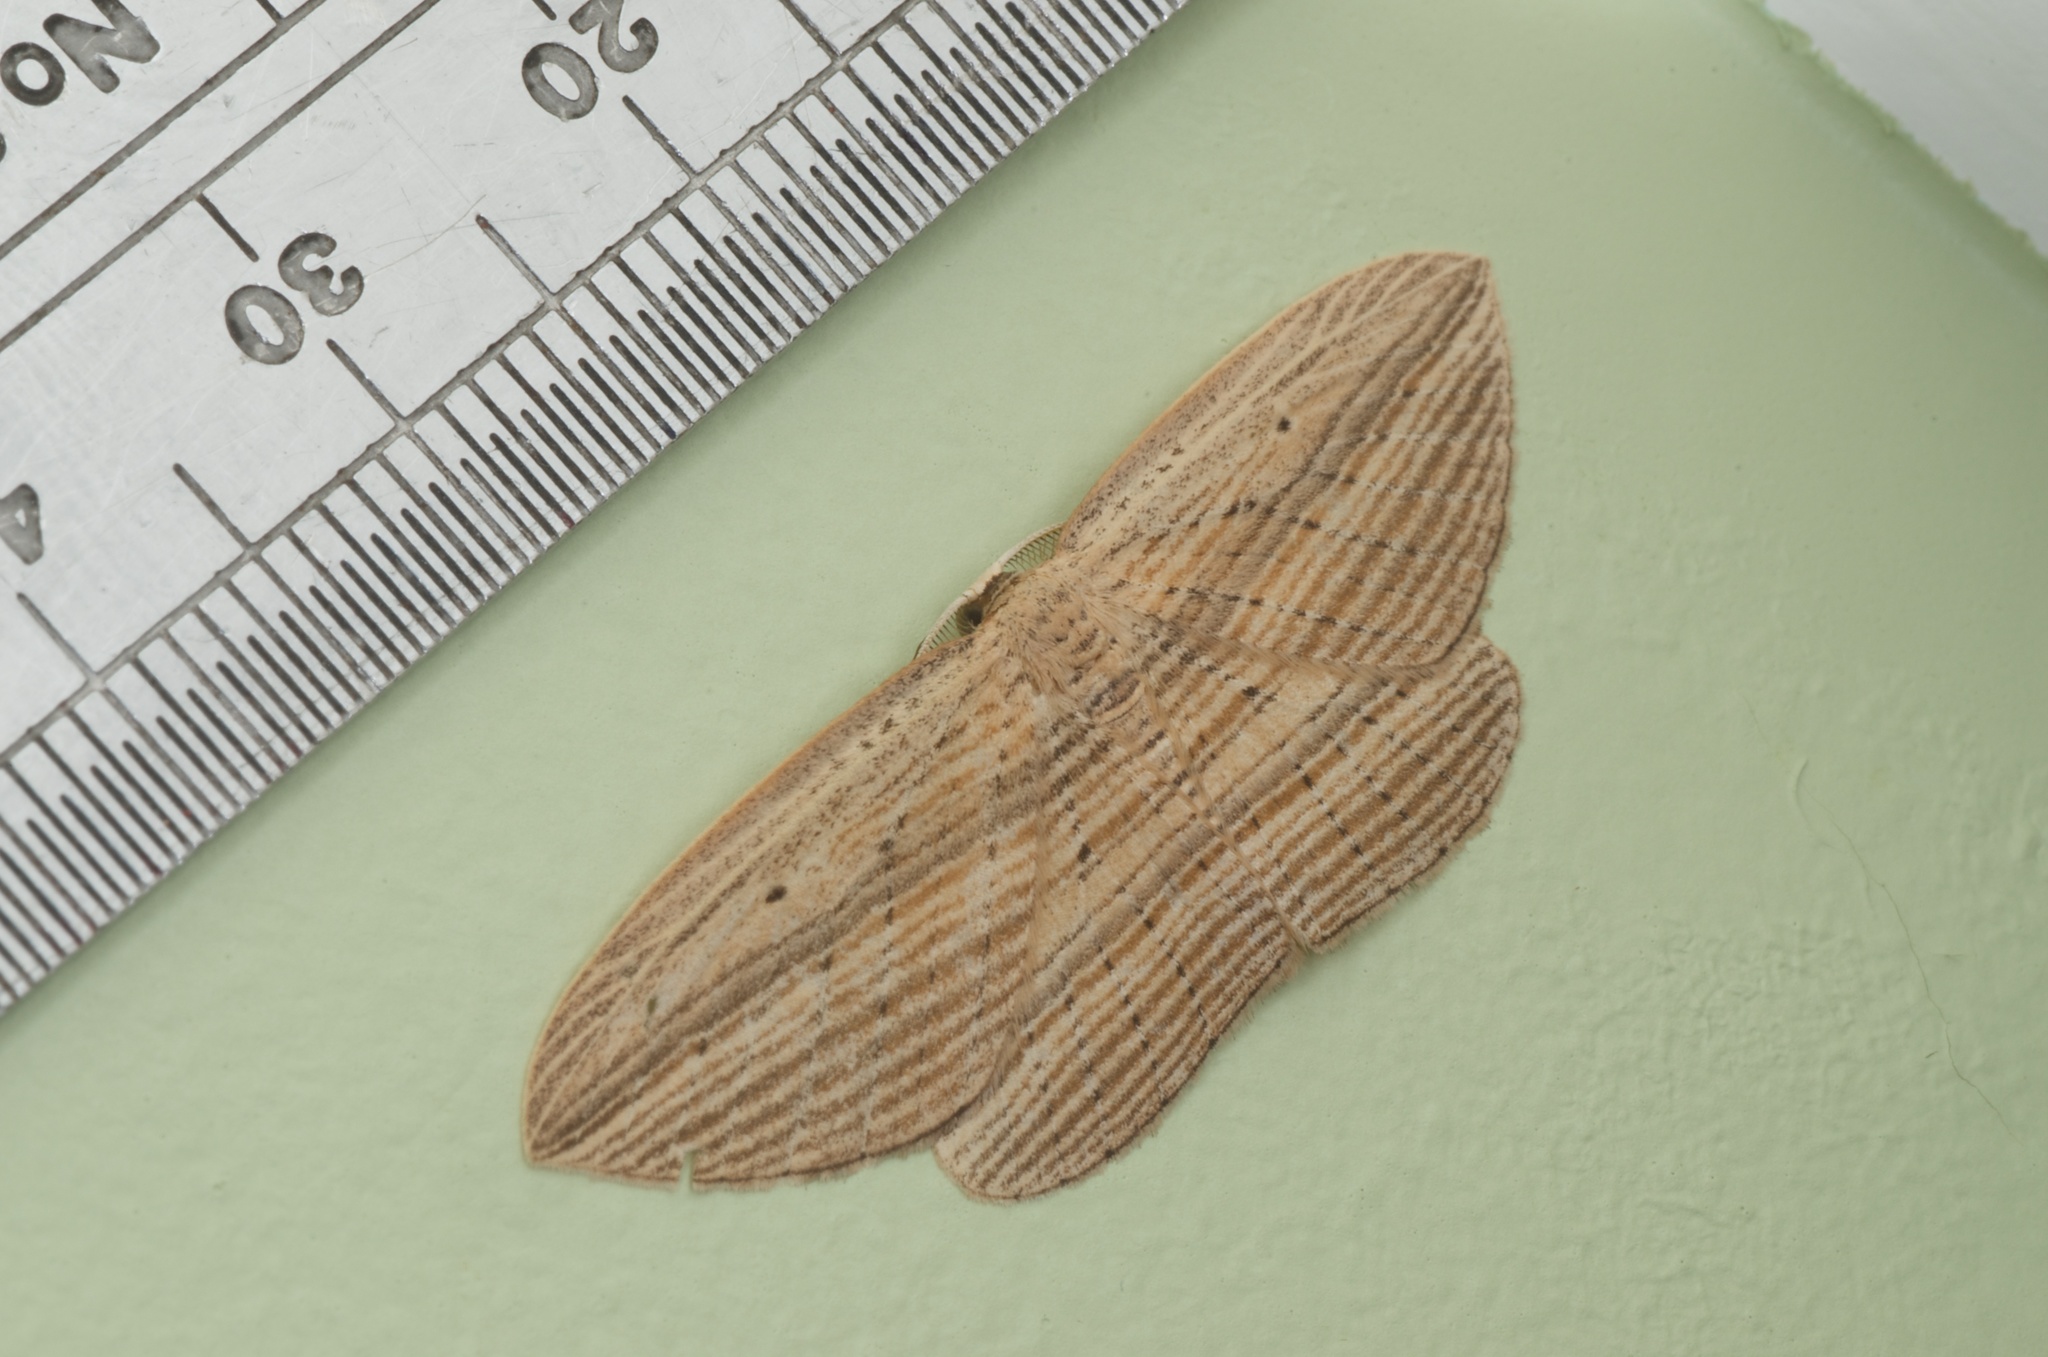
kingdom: Animalia
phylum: Arthropoda
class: Insecta
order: Lepidoptera
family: Geometridae
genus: Epiphryne
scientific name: Epiphryne verriculata
